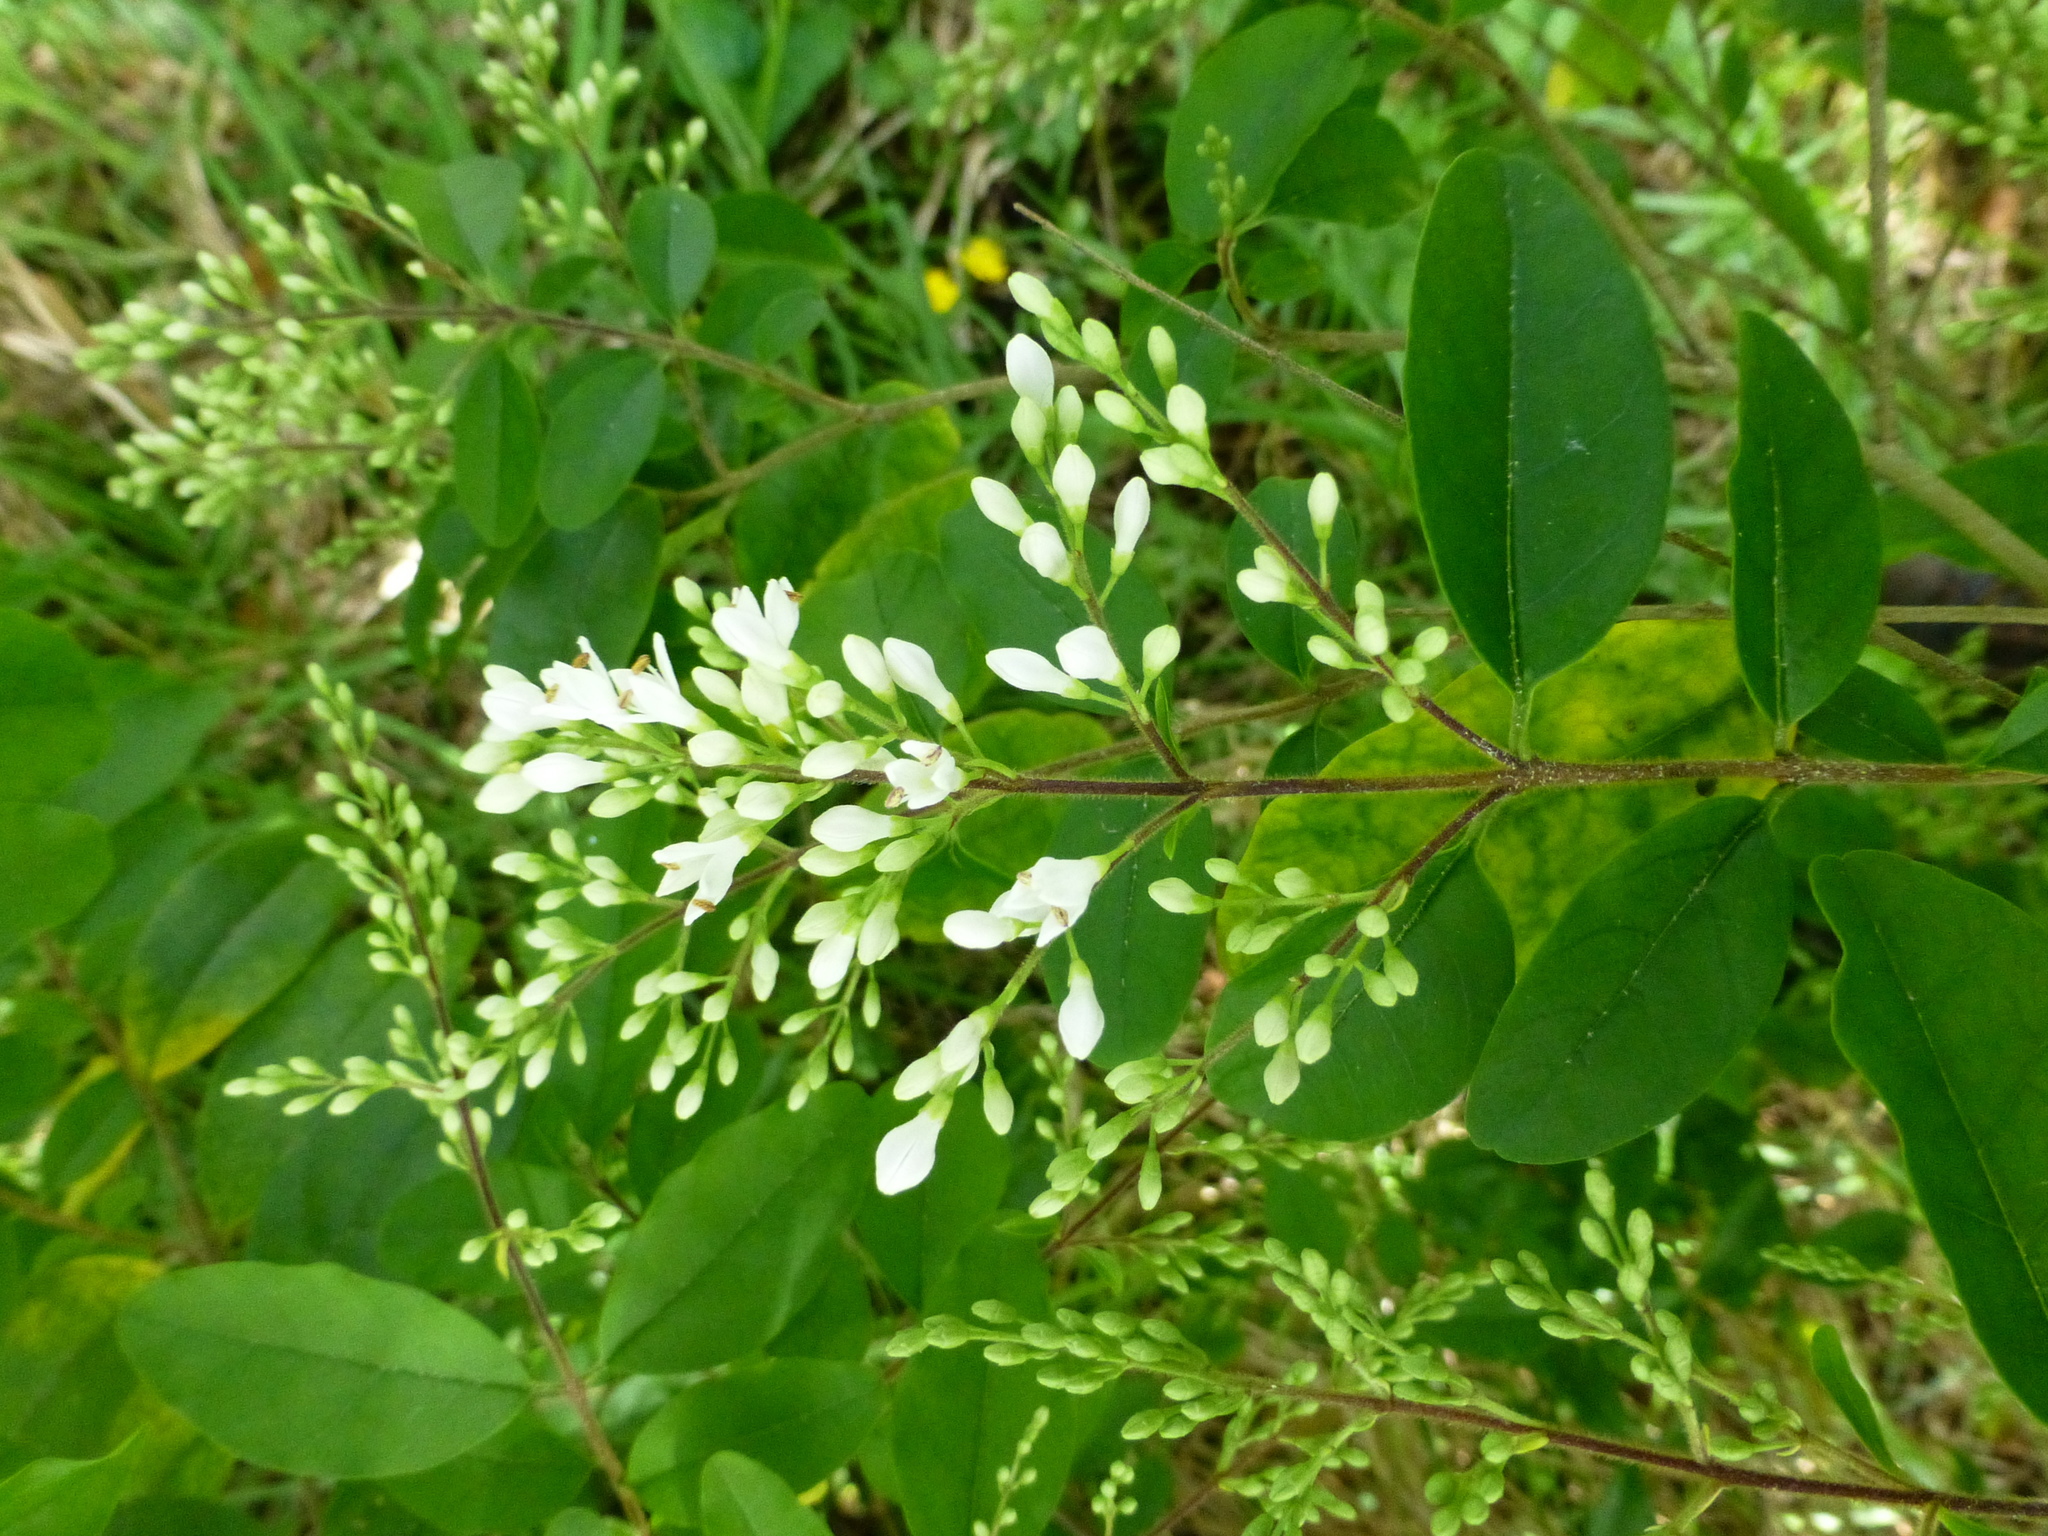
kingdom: Plantae
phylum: Tracheophyta
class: Magnoliopsida
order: Lamiales
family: Oleaceae
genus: Ligustrum
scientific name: Ligustrum sinense
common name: Chinese privet
